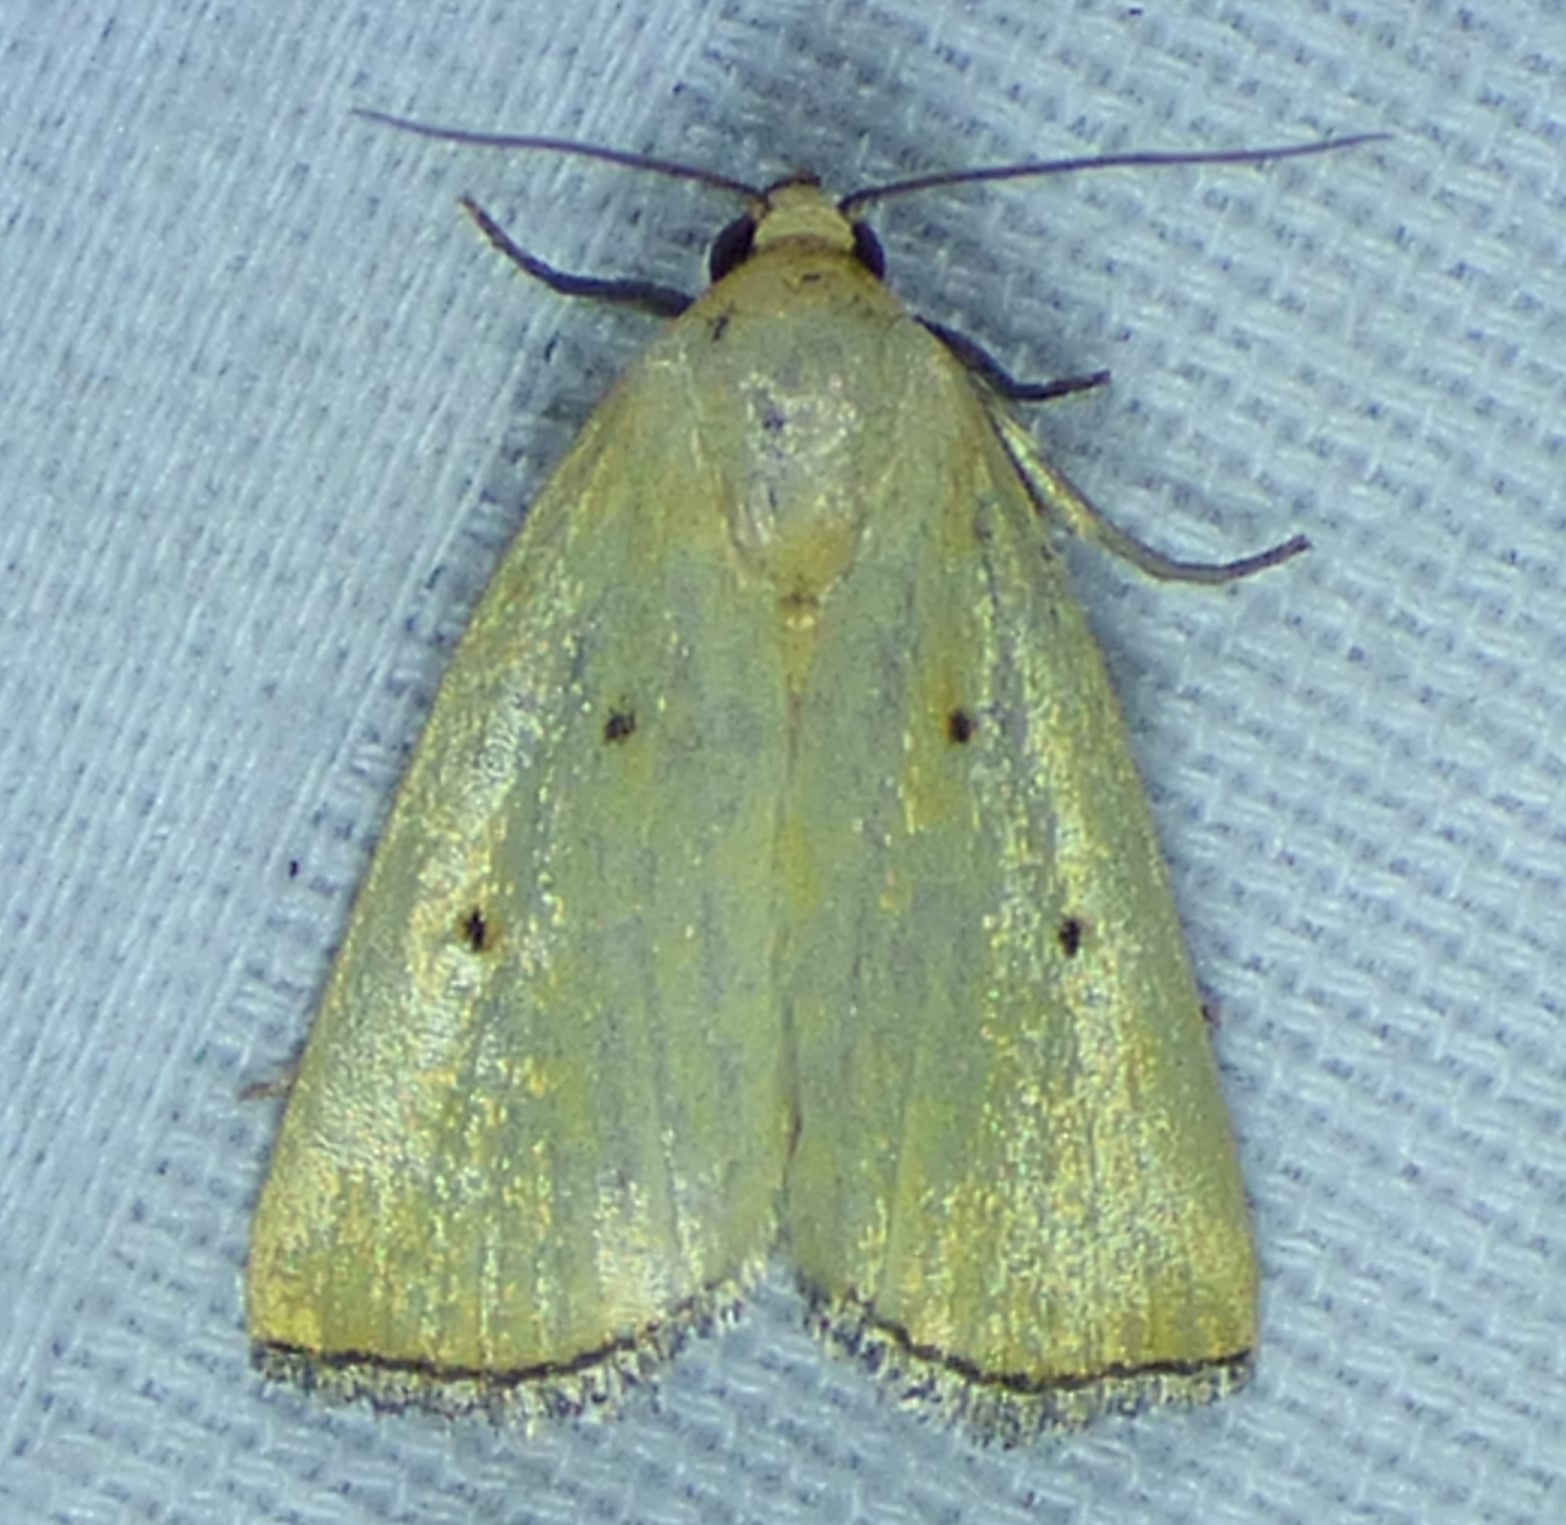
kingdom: Animalia
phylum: Arthropoda
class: Insecta
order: Lepidoptera
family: Noctuidae
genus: Marimatha
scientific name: Marimatha nigrofimbria
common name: Black-bordered lemon moth
